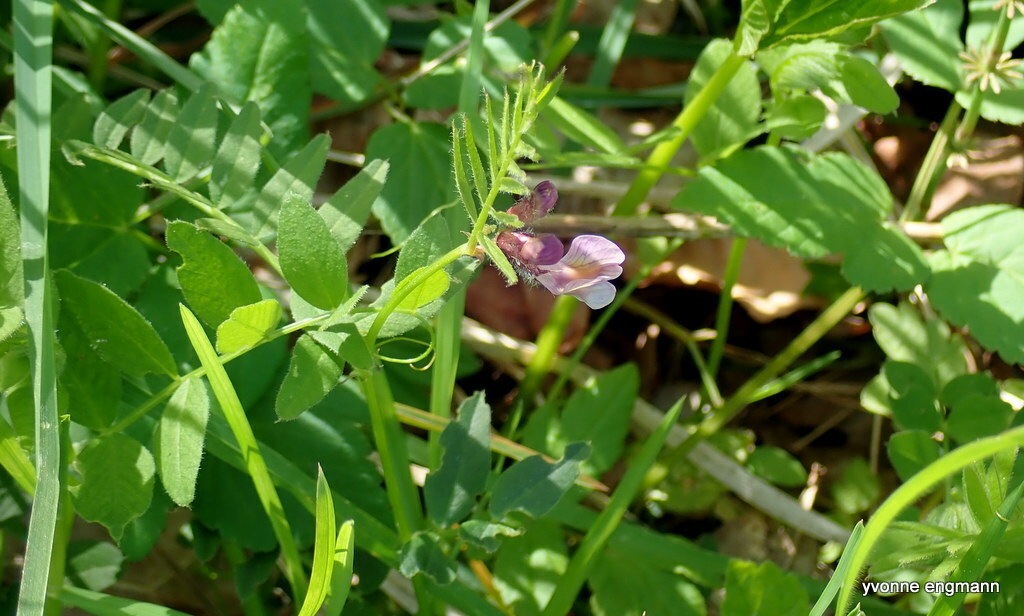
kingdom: Plantae
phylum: Tracheophyta
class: Magnoliopsida
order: Fabales
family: Fabaceae
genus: Vicia
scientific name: Vicia sepium
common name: Bush vetch
